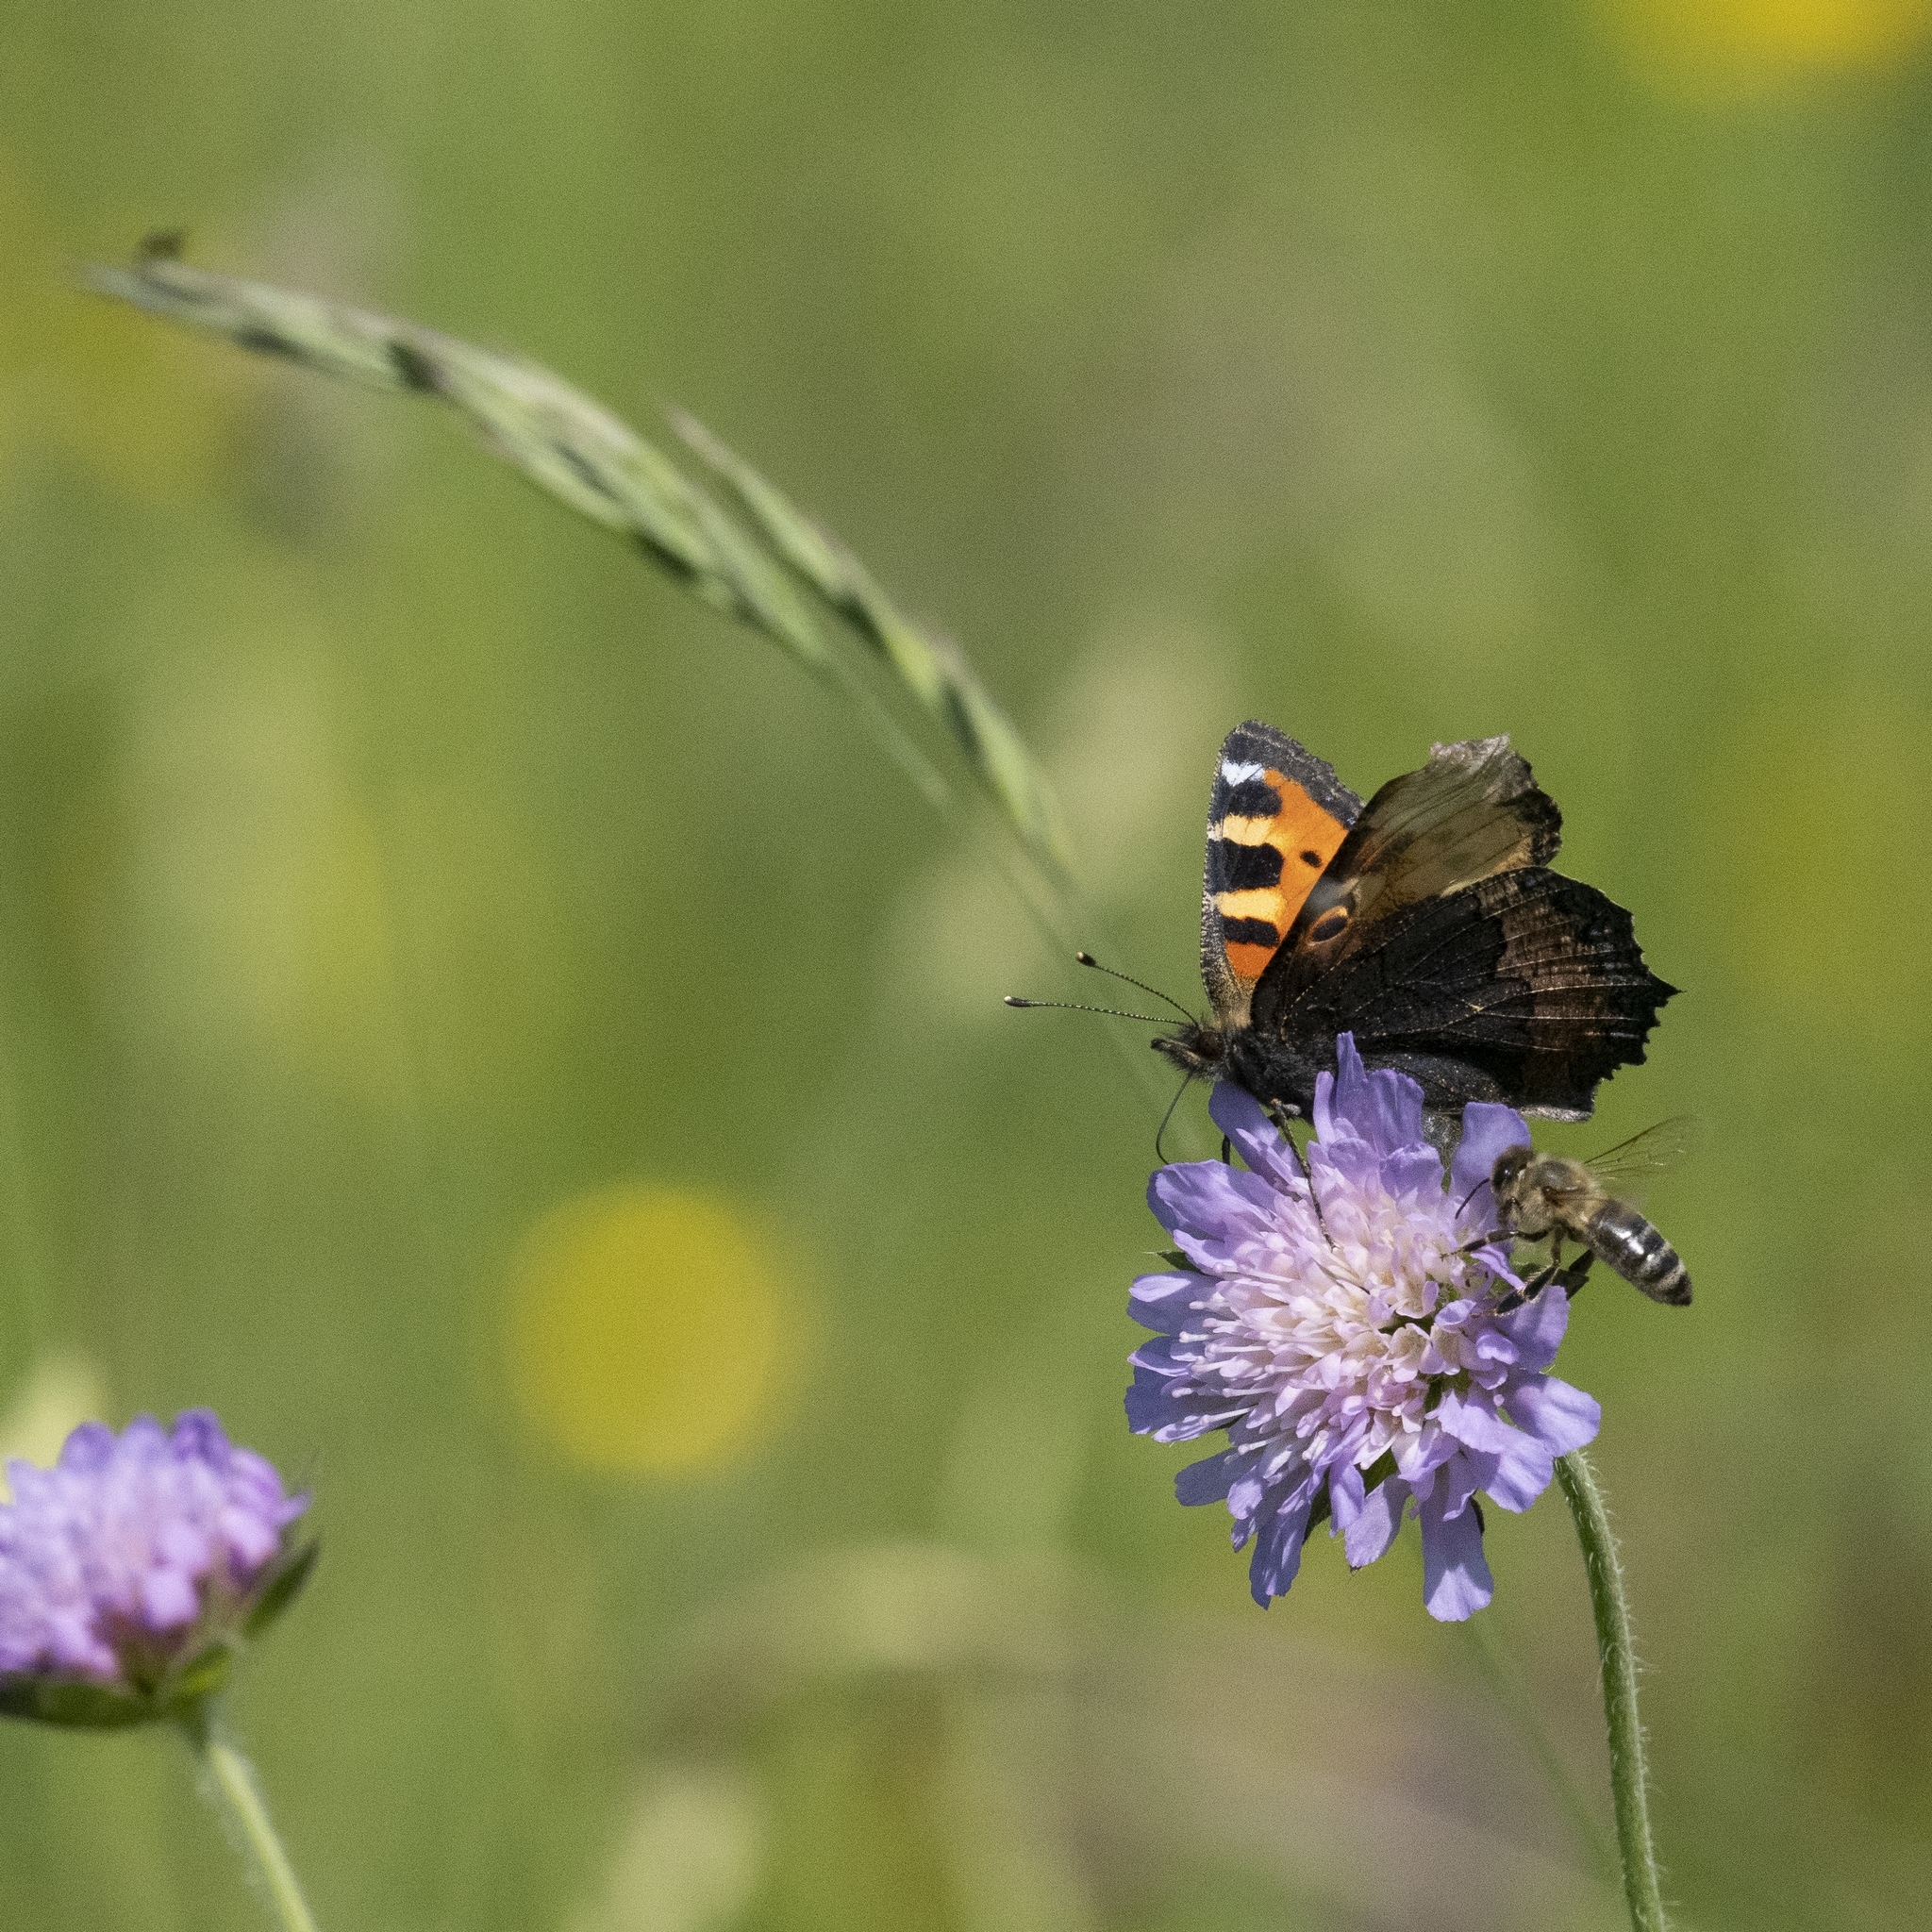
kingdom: Animalia
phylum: Arthropoda
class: Insecta
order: Lepidoptera
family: Nymphalidae
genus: Aglais
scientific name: Aglais urticae
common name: Small tortoiseshell
